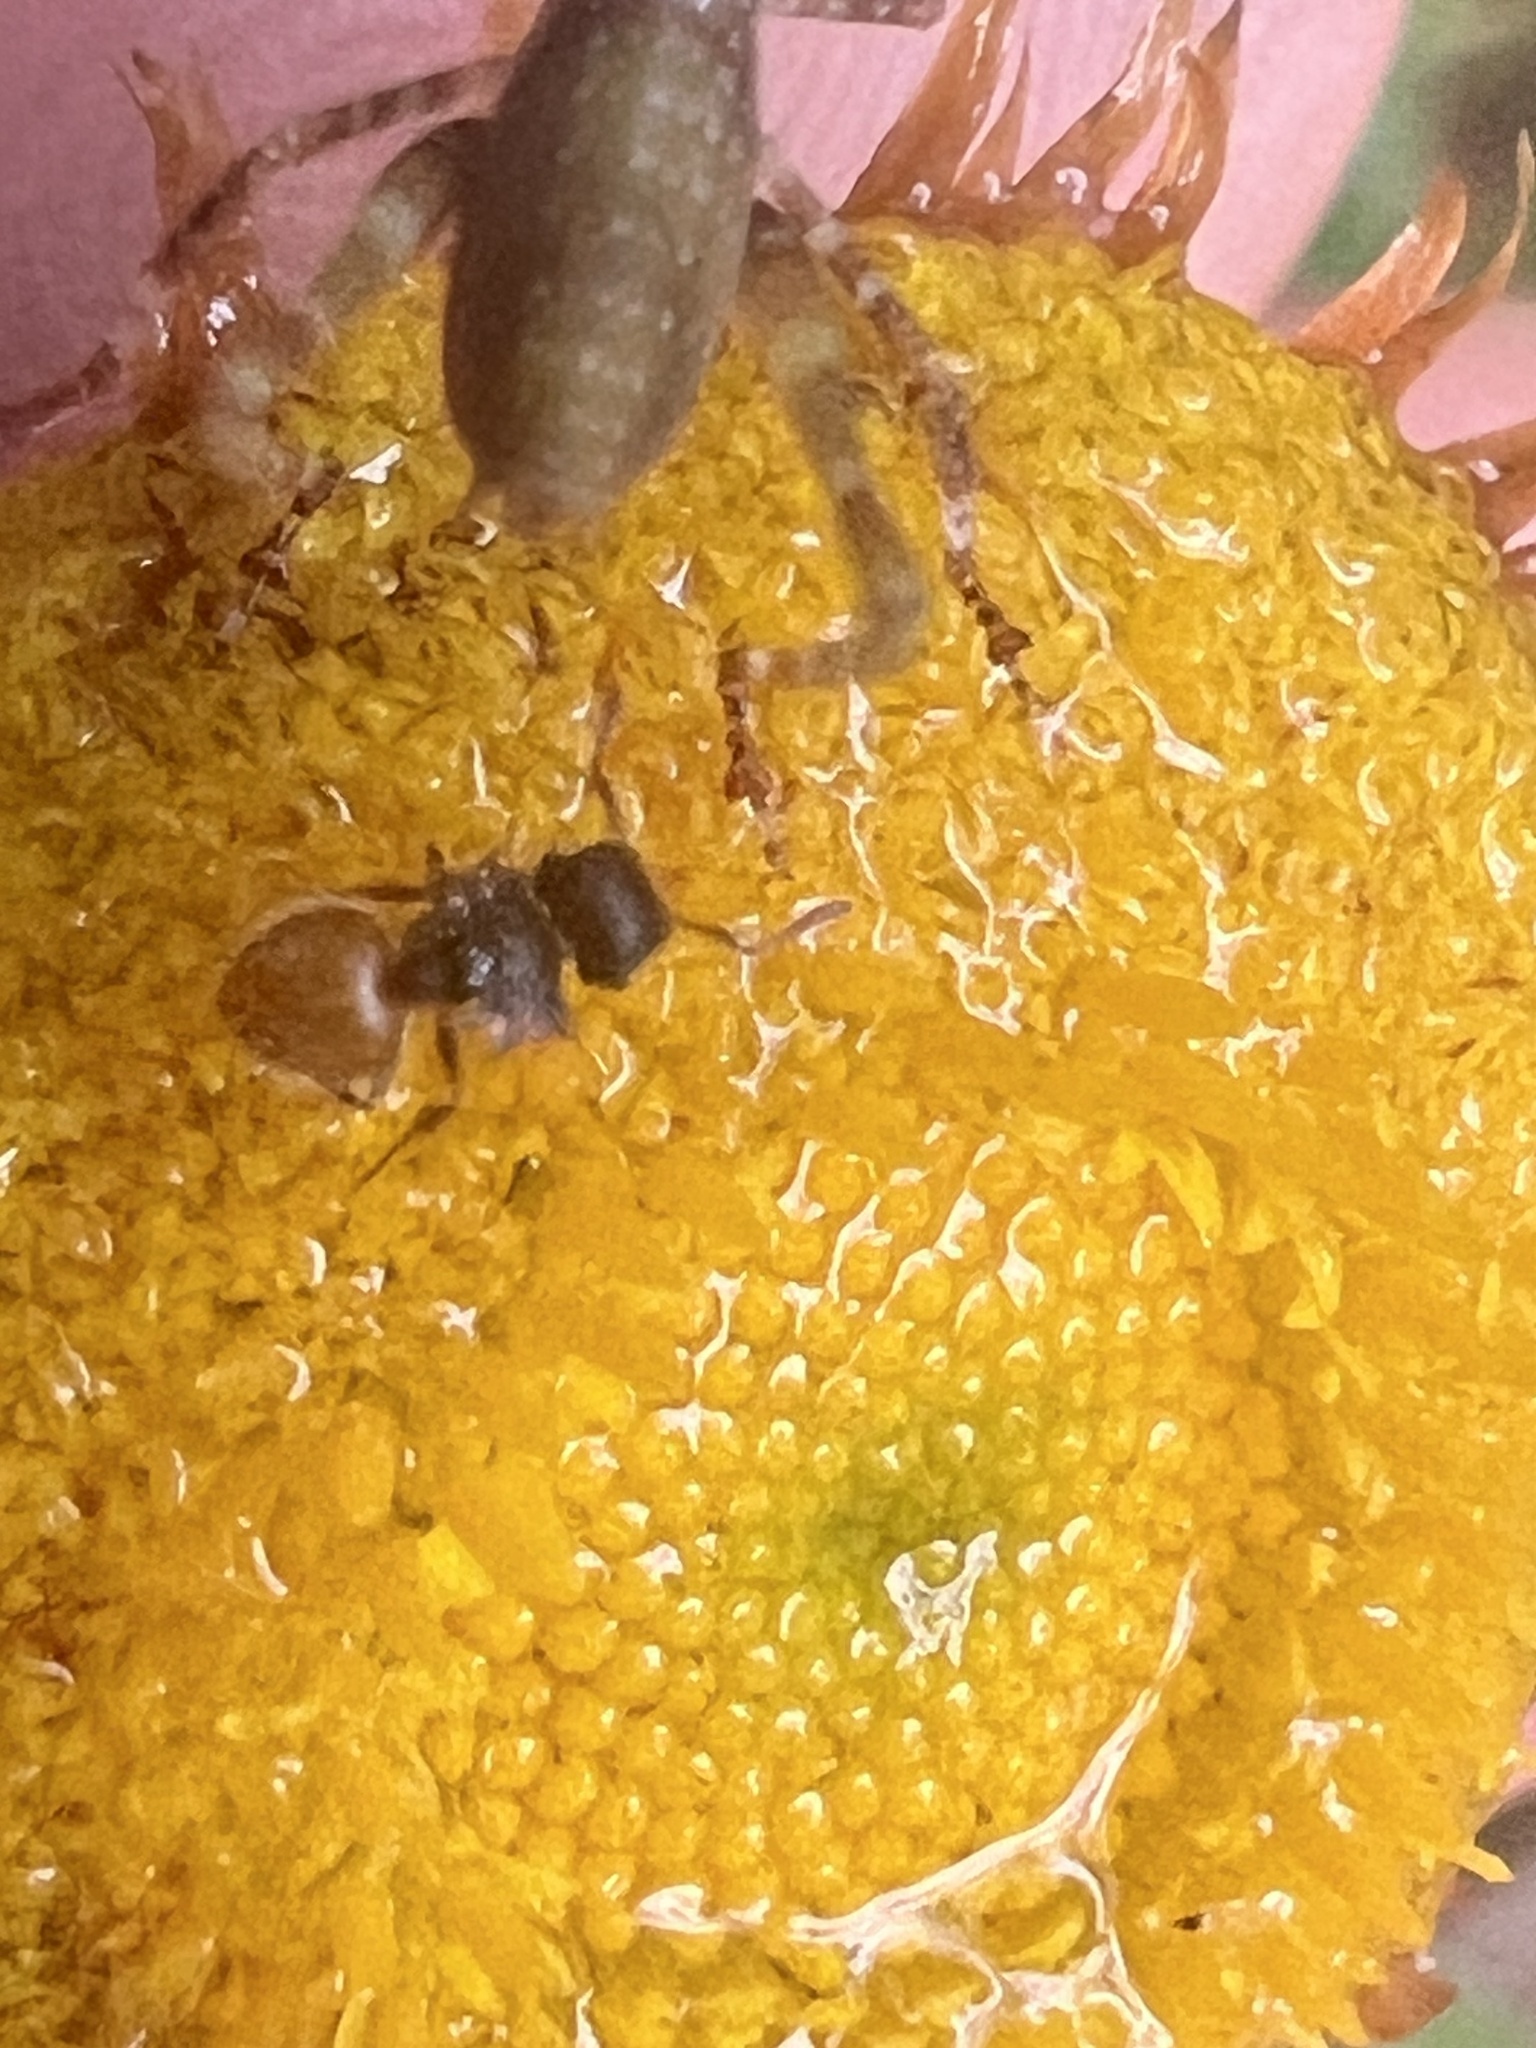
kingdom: Animalia
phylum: Arthropoda
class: Insecta
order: Hymenoptera
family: Formicidae
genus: Meranoplus
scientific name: Meranoplus hirsutus
